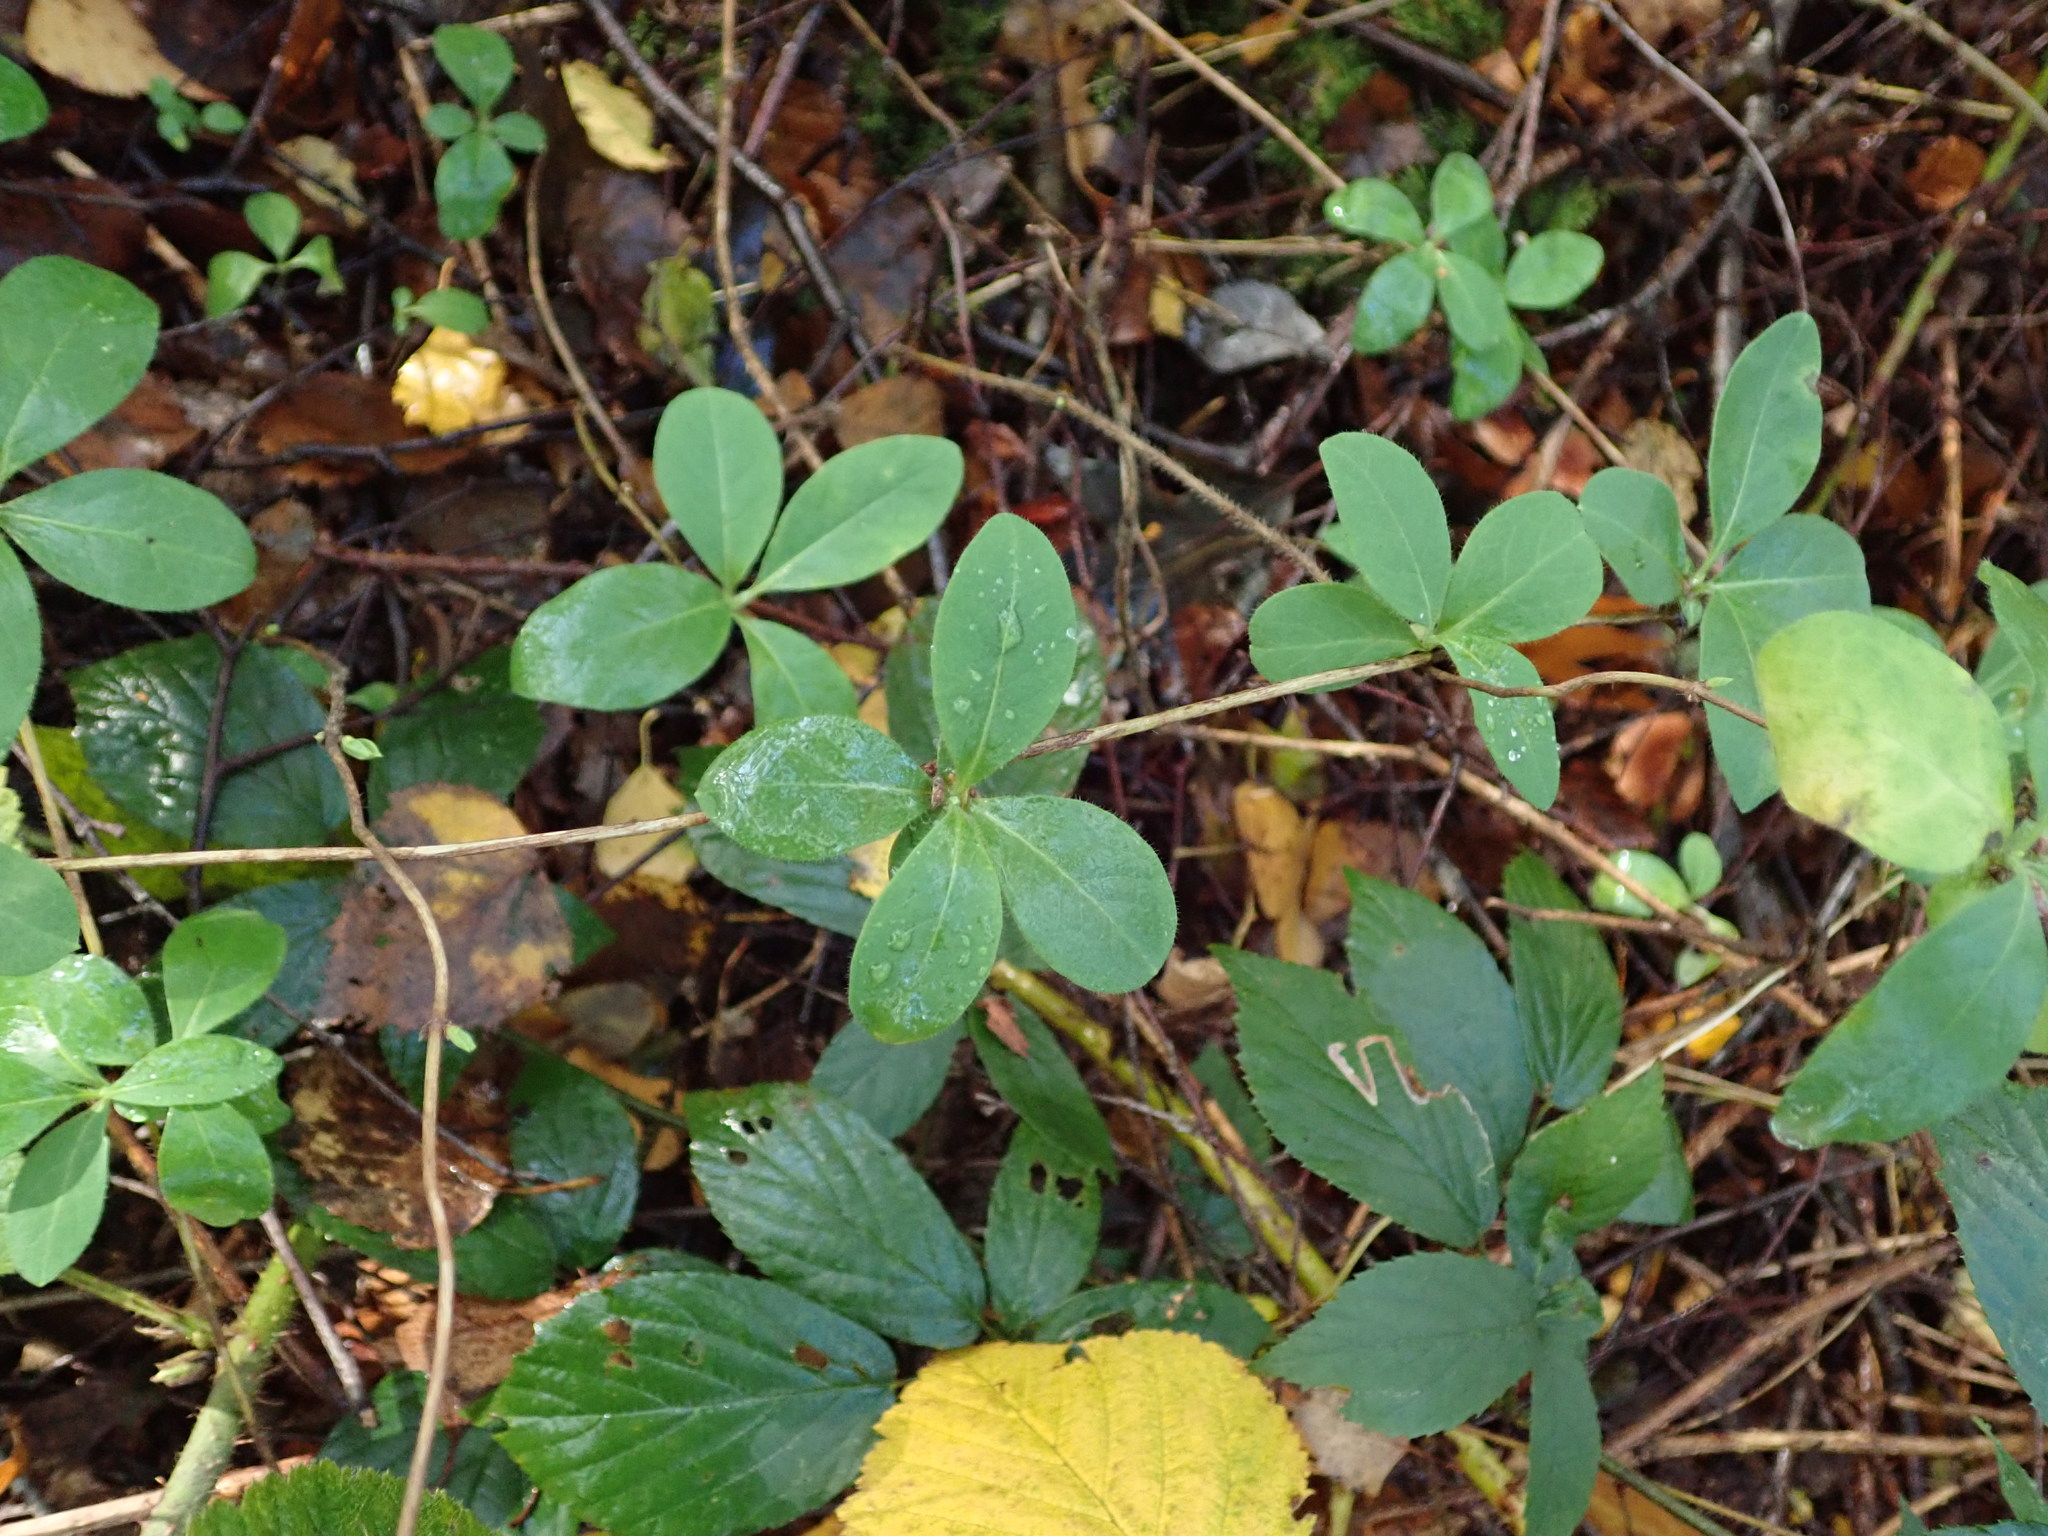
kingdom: Plantae
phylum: Tracheophyta
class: Magnoliopsida
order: Dipsacales
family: Caprifoliaceae
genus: Lonicera
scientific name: Lonicera periclymenum
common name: European honeysuckle
